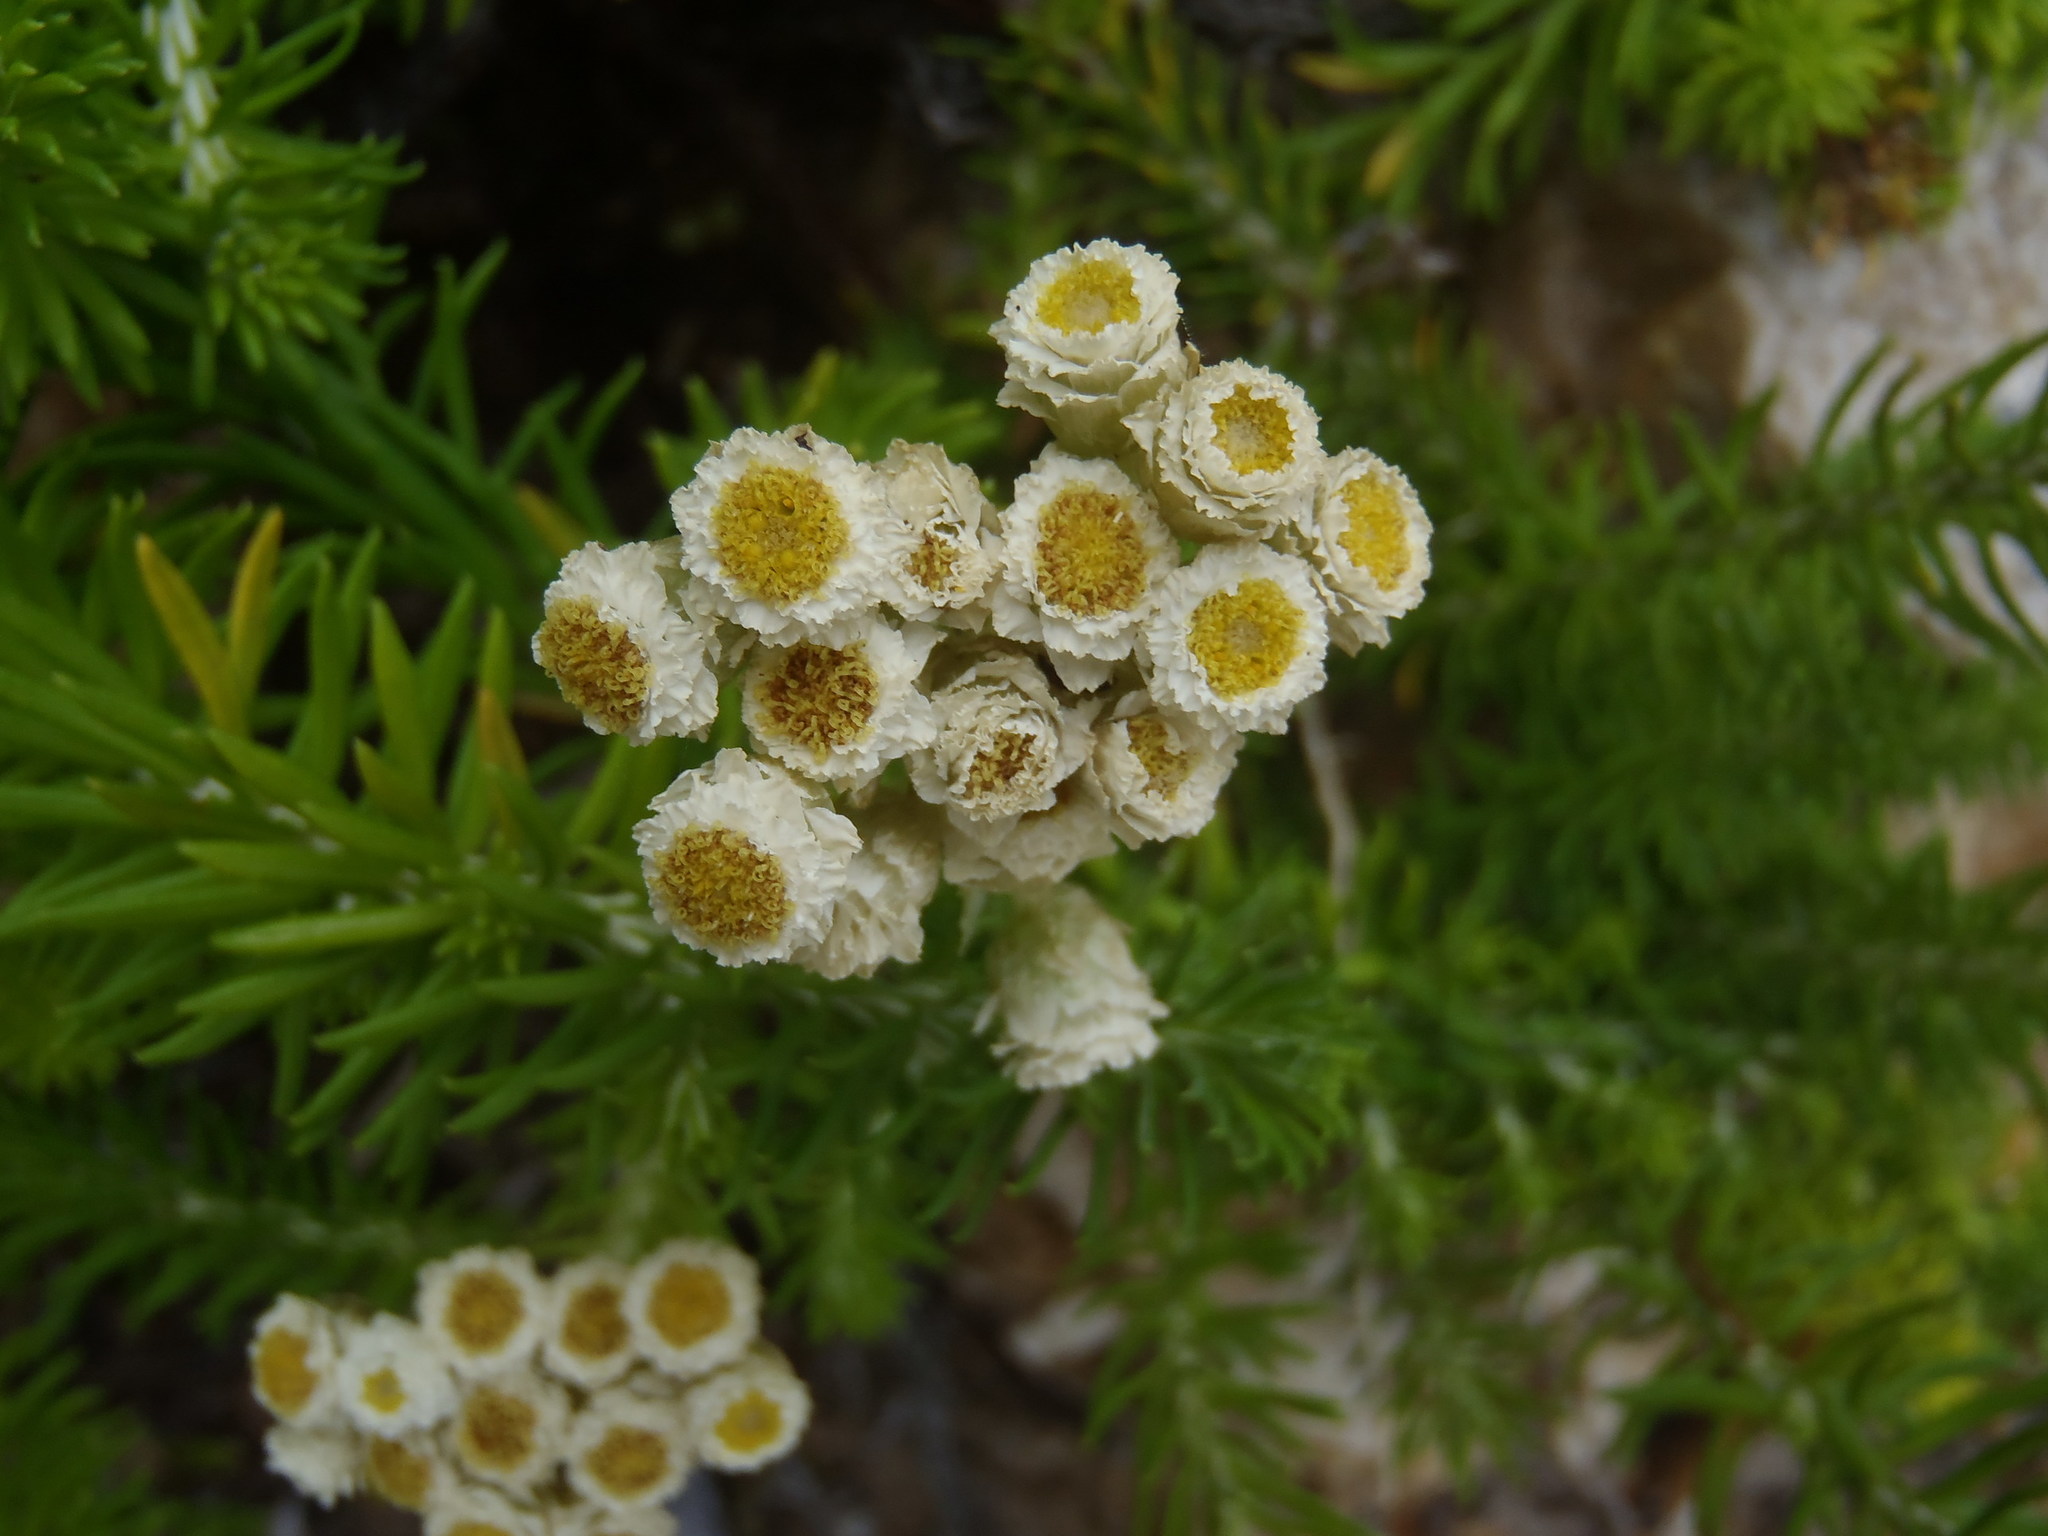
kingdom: Plantae
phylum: Tracheophyta
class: Magnoliopsida
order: Asterales
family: Asteraceae
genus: Helichrysum
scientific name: Helichrysum teretifolium
